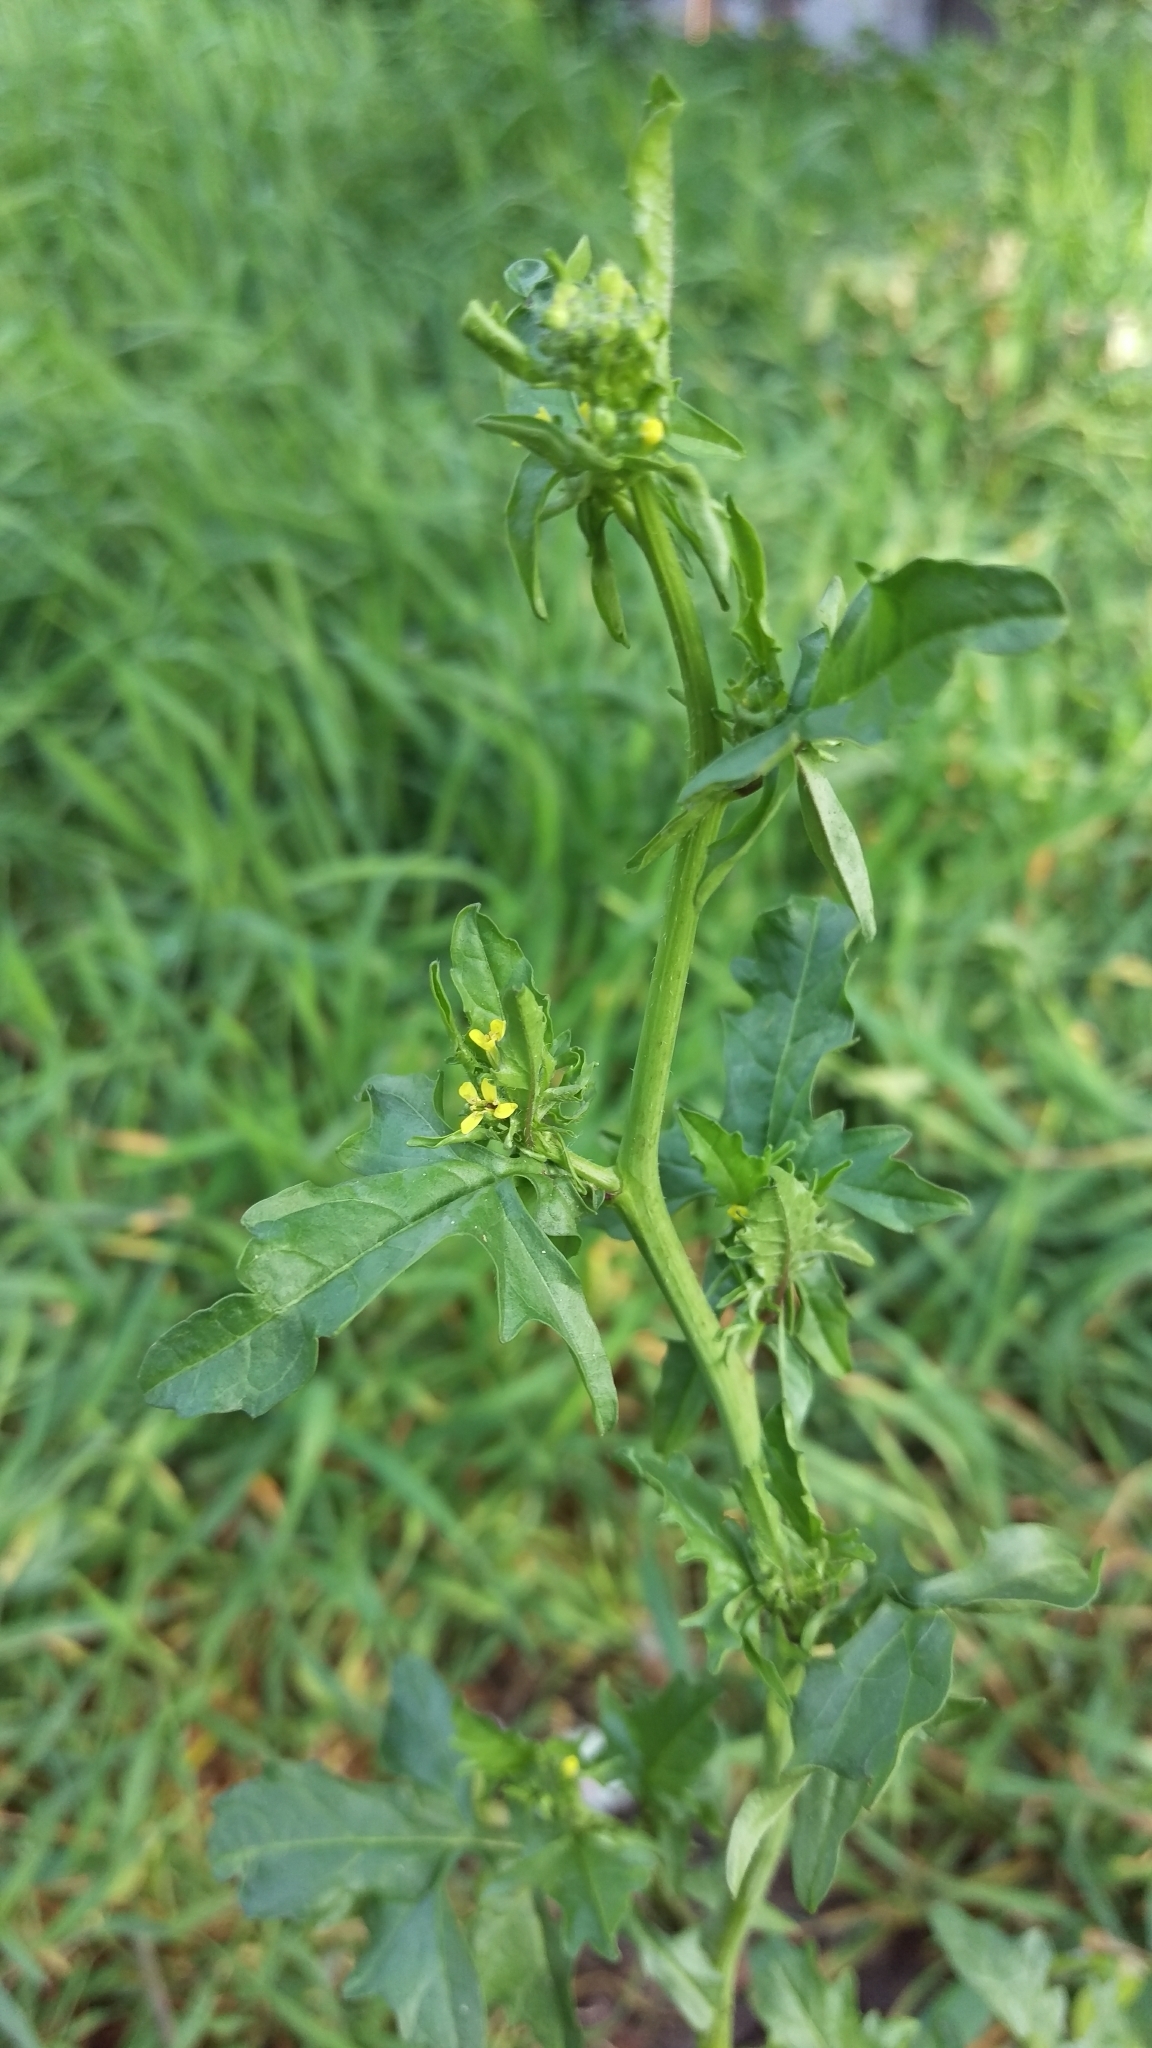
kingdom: Plantae
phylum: Tracheophyta
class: Magnoliopsida
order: Brassicales
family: Brassicaceae
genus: Sisymbrium
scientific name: Sisymbrium officinale
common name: Hedge mustard
